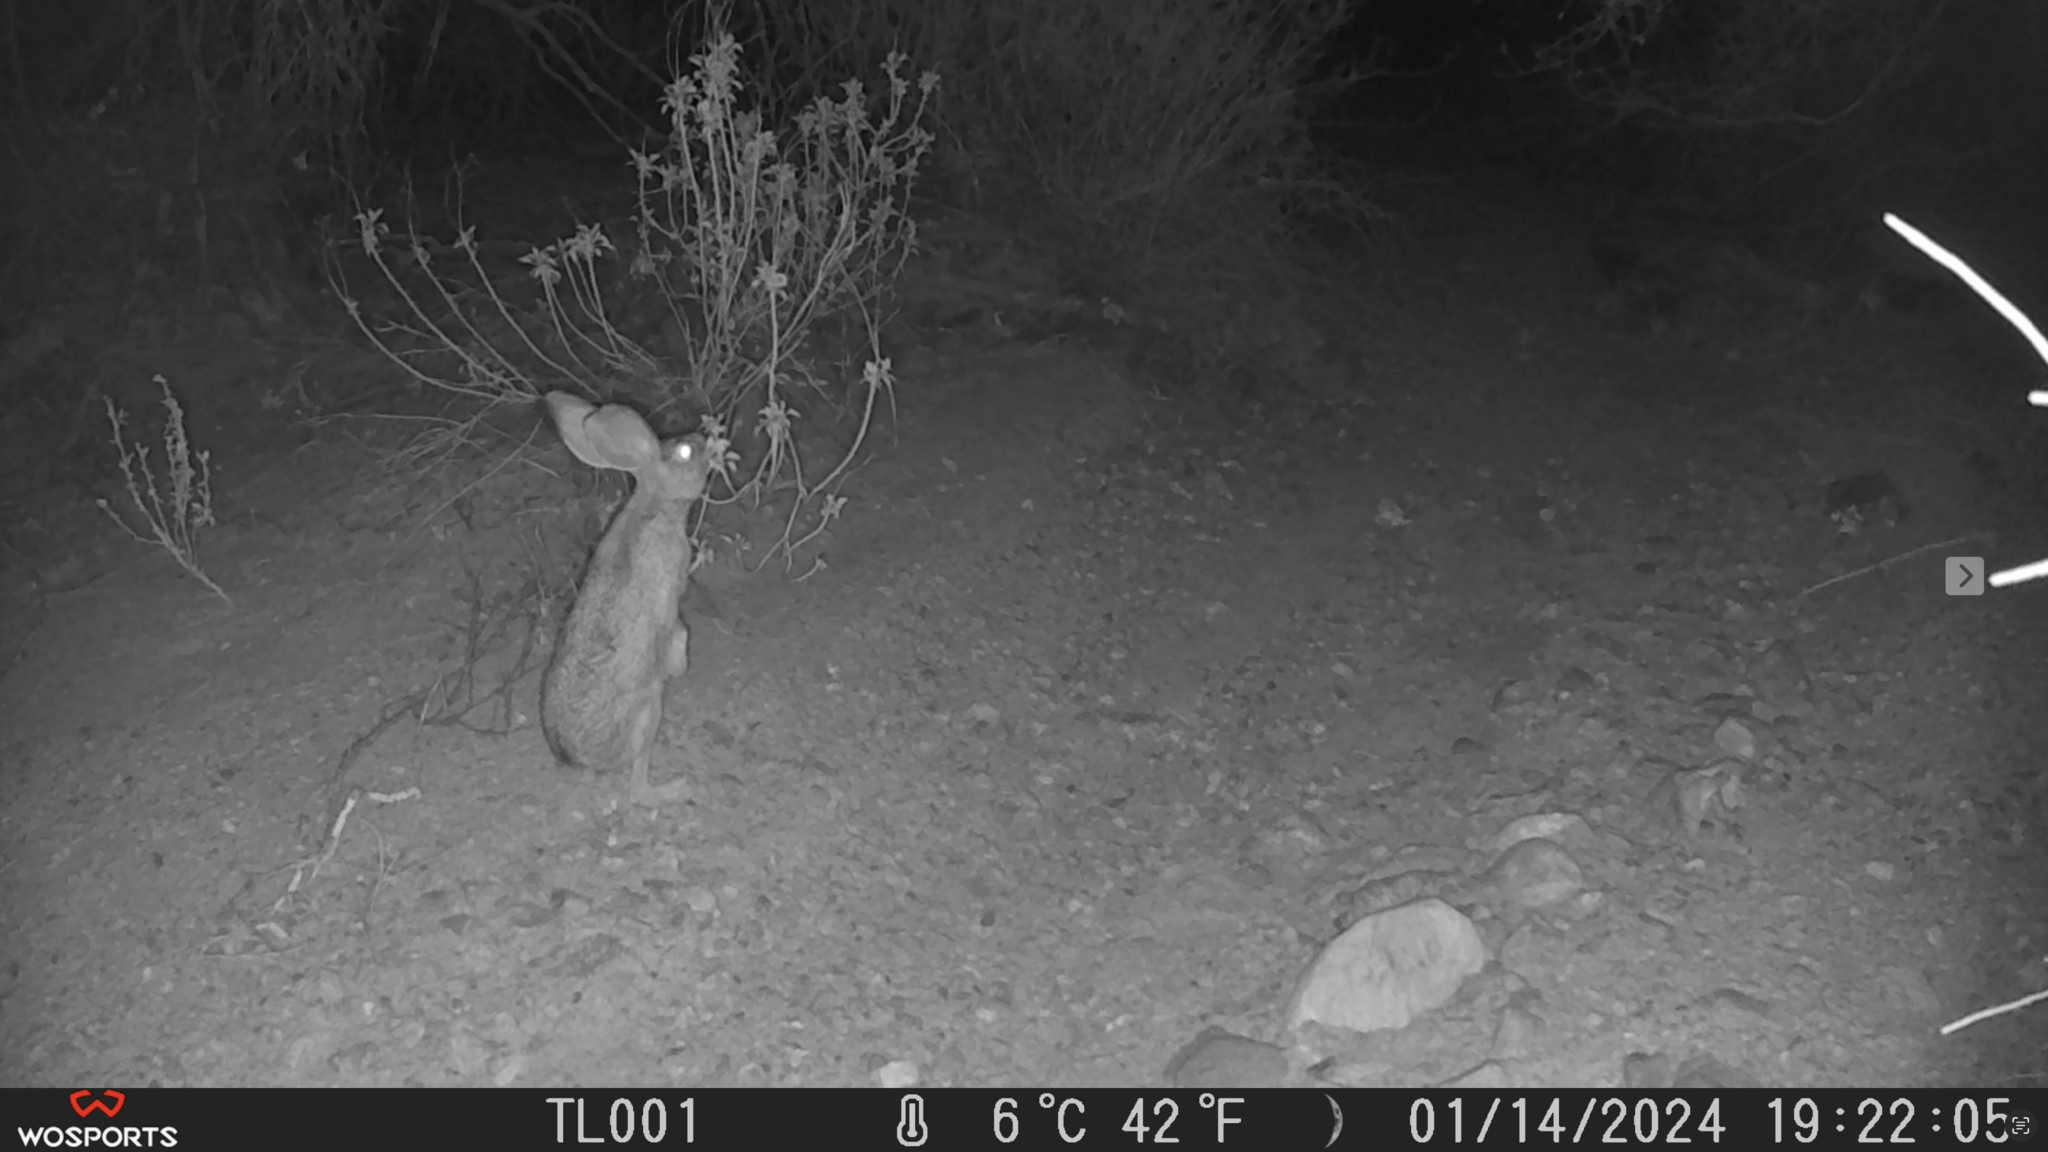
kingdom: Animalia
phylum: Chordata
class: Mammalia
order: Lagomorpha
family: Leporidae
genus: Lepus
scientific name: Lepus californicus
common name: Black-tailed jackrabbit
